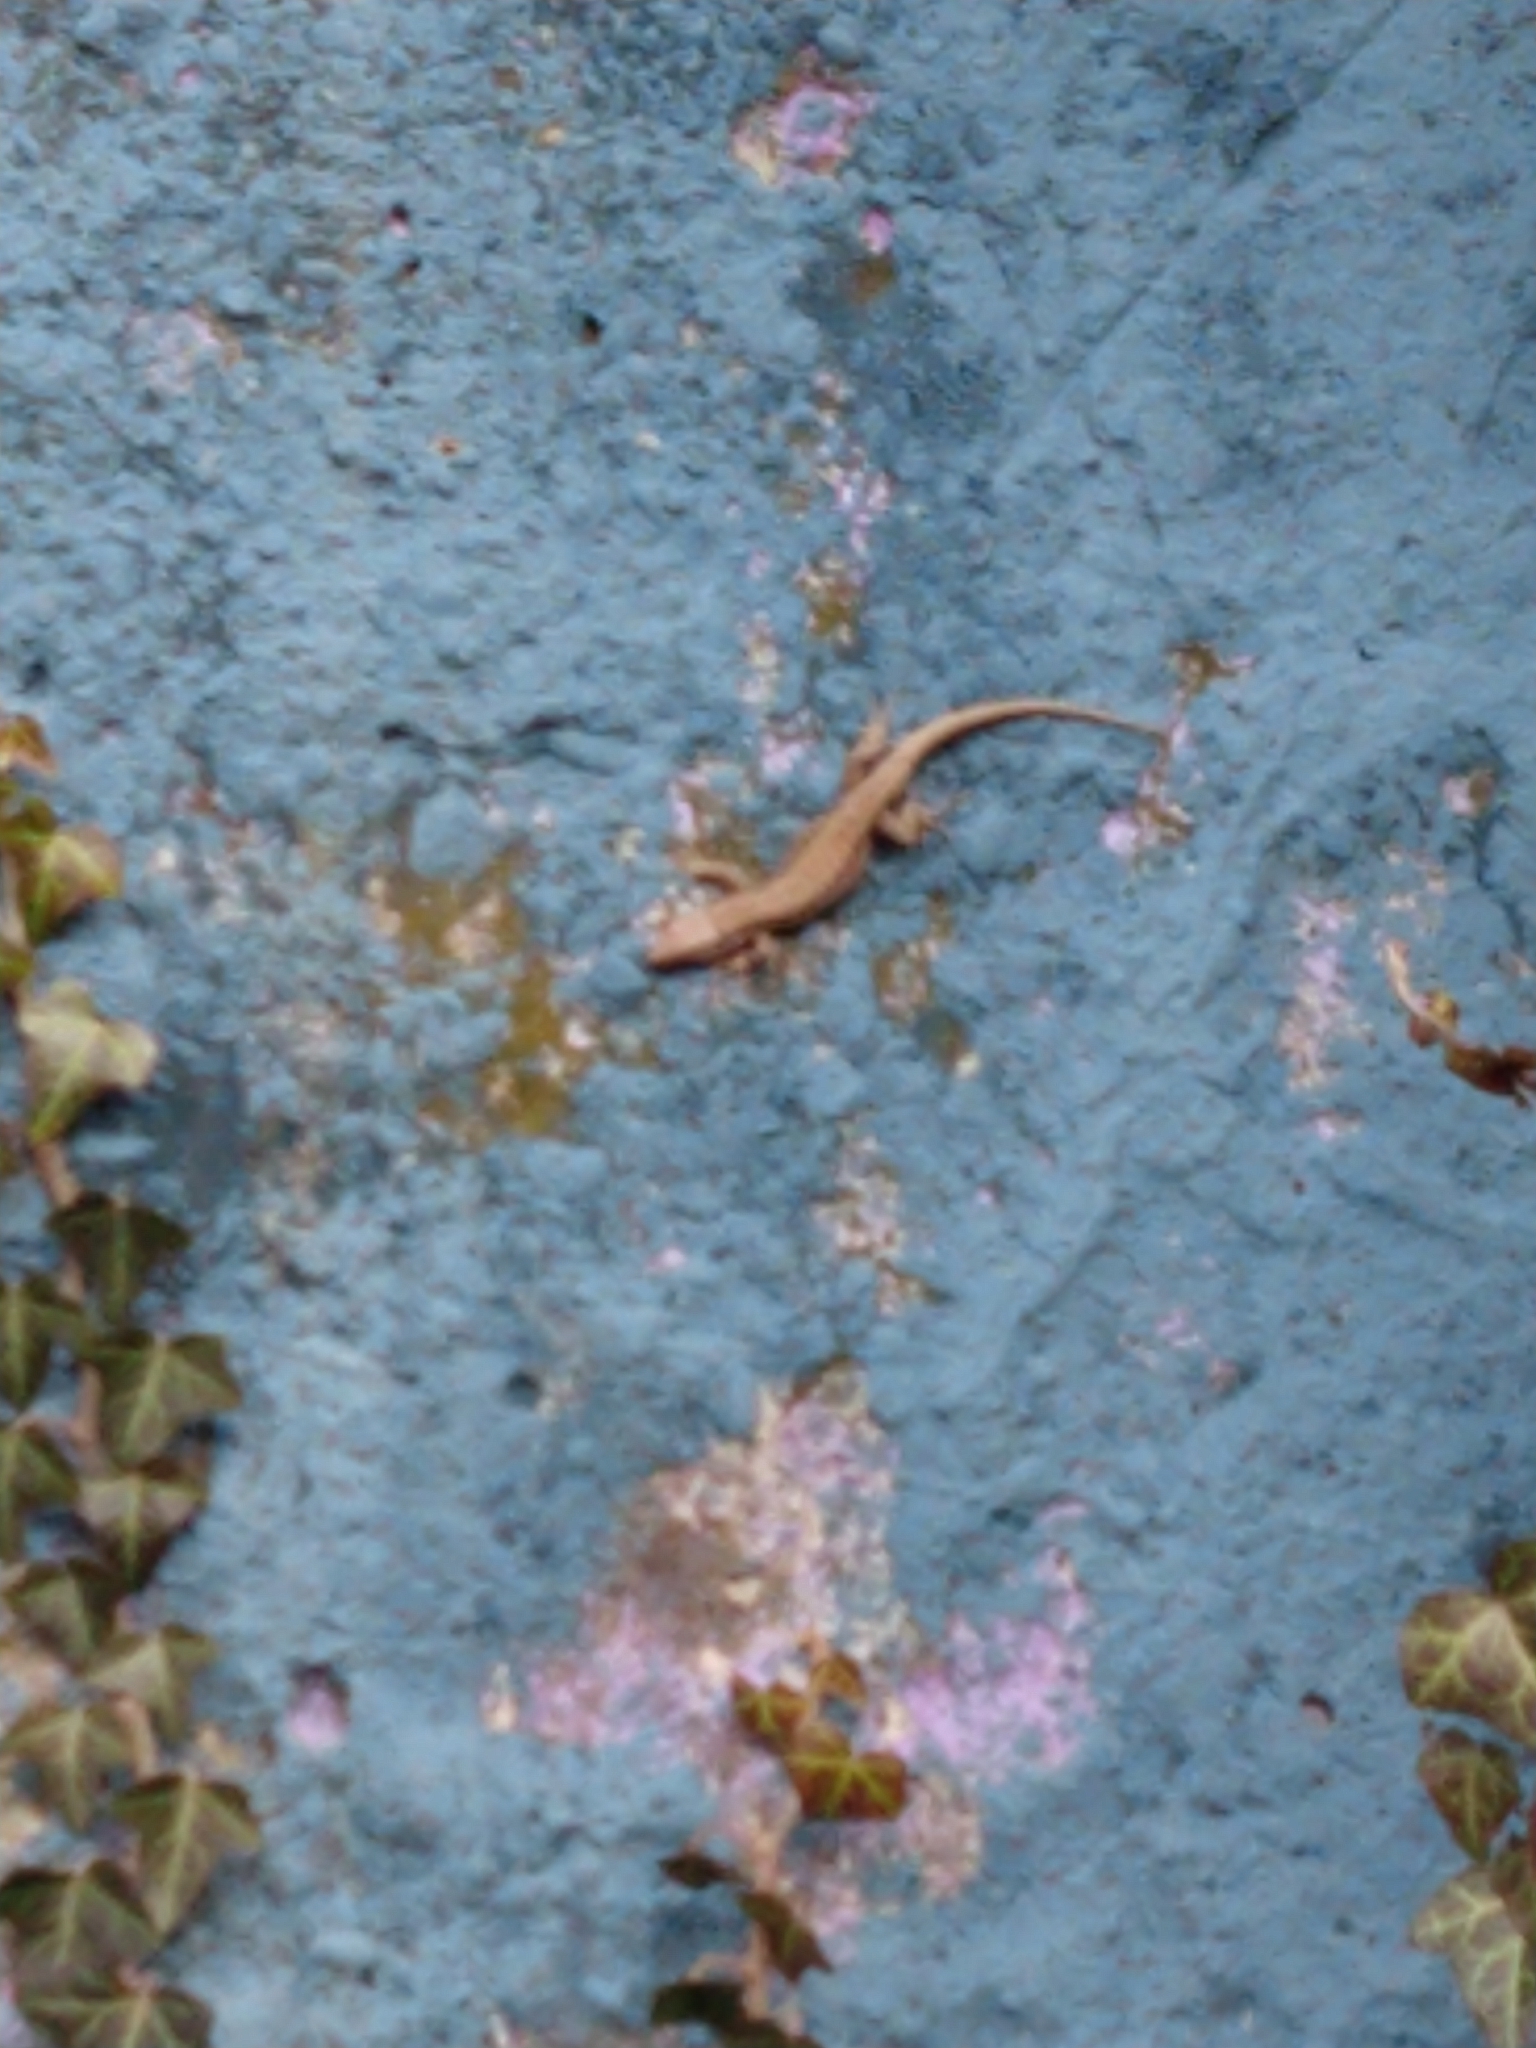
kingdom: Animalia
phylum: Chordata
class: Squamata
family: Lacertidae
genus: Podarcis
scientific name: Podarcis muralis
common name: Common wall lizard
